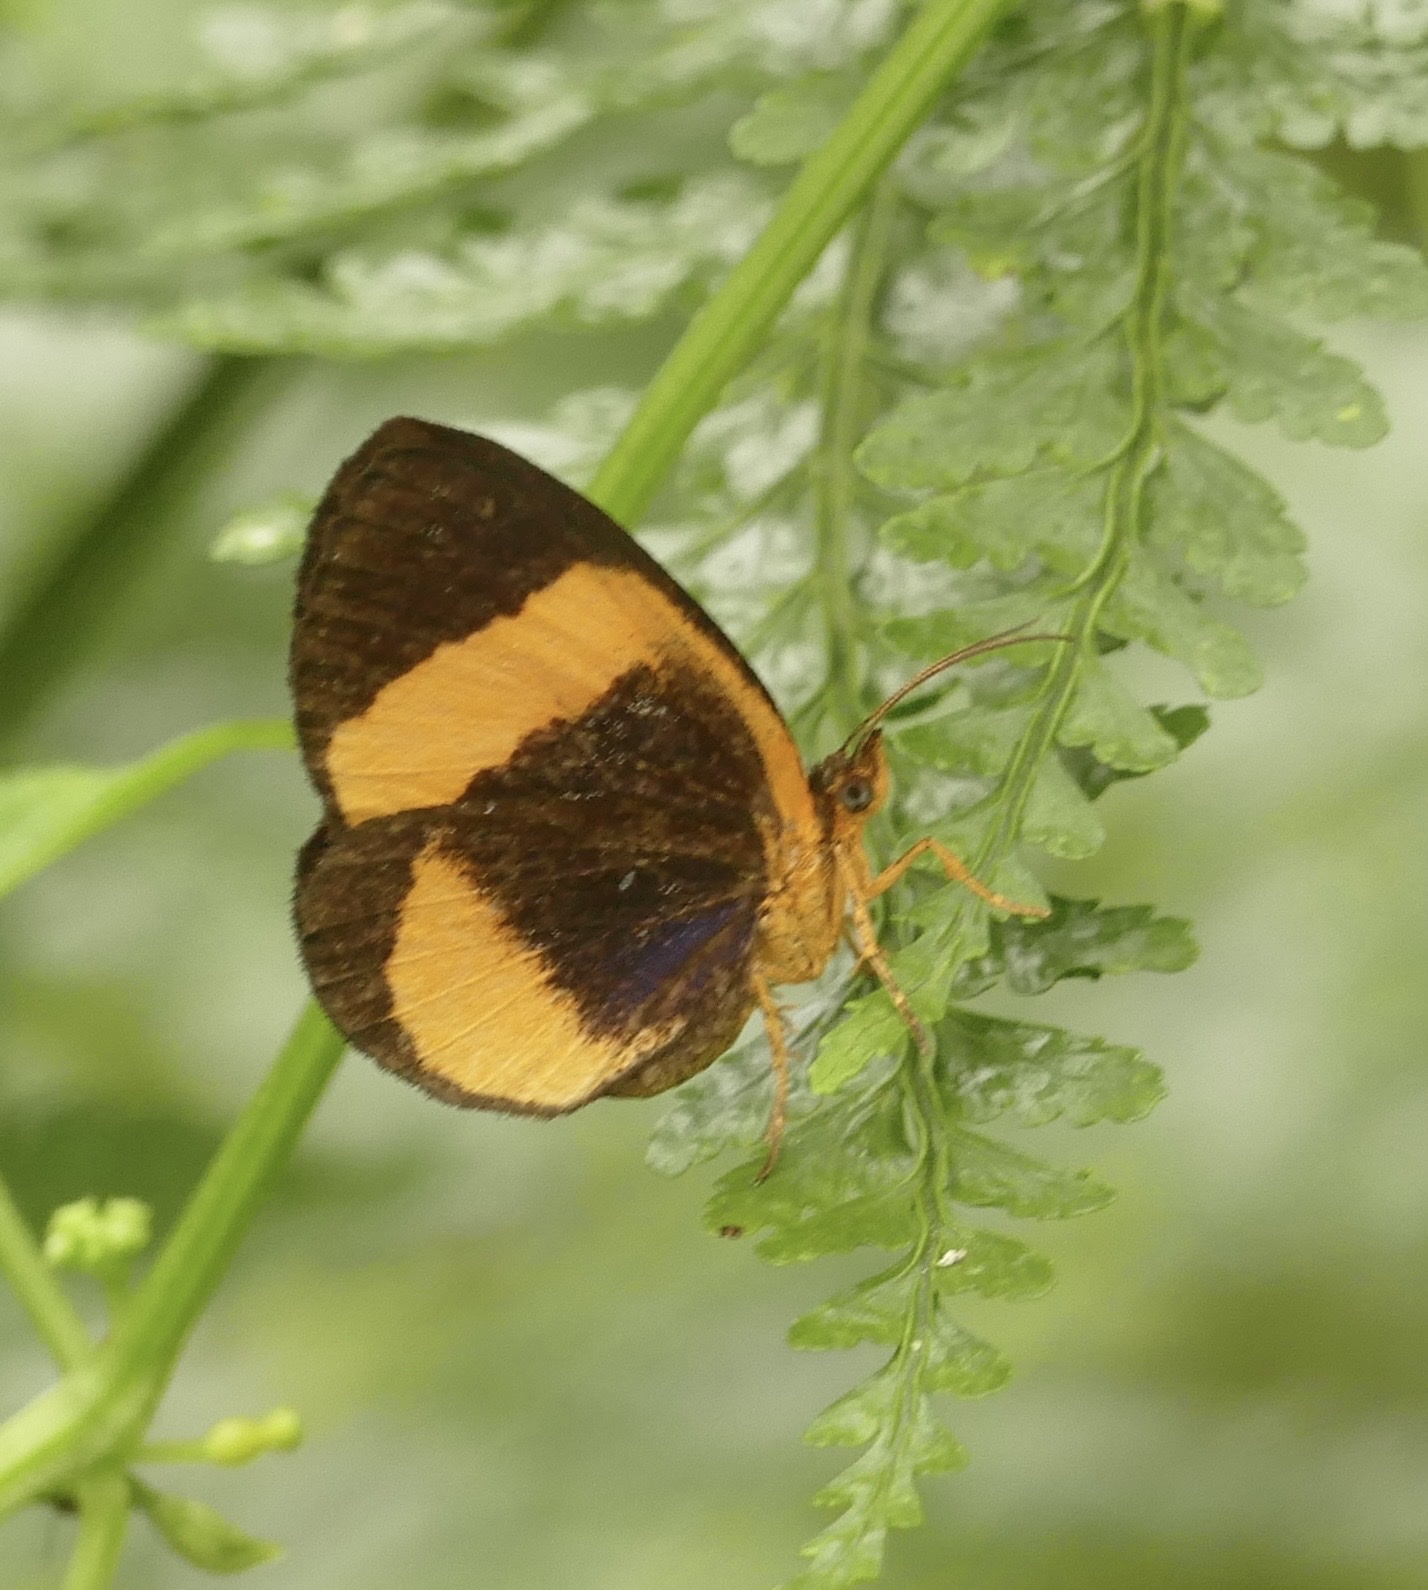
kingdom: Animalia
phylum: Arthropoda
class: Insecta
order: Lepidoptera
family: Callidulidae
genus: Callidula
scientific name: Callidula evander
